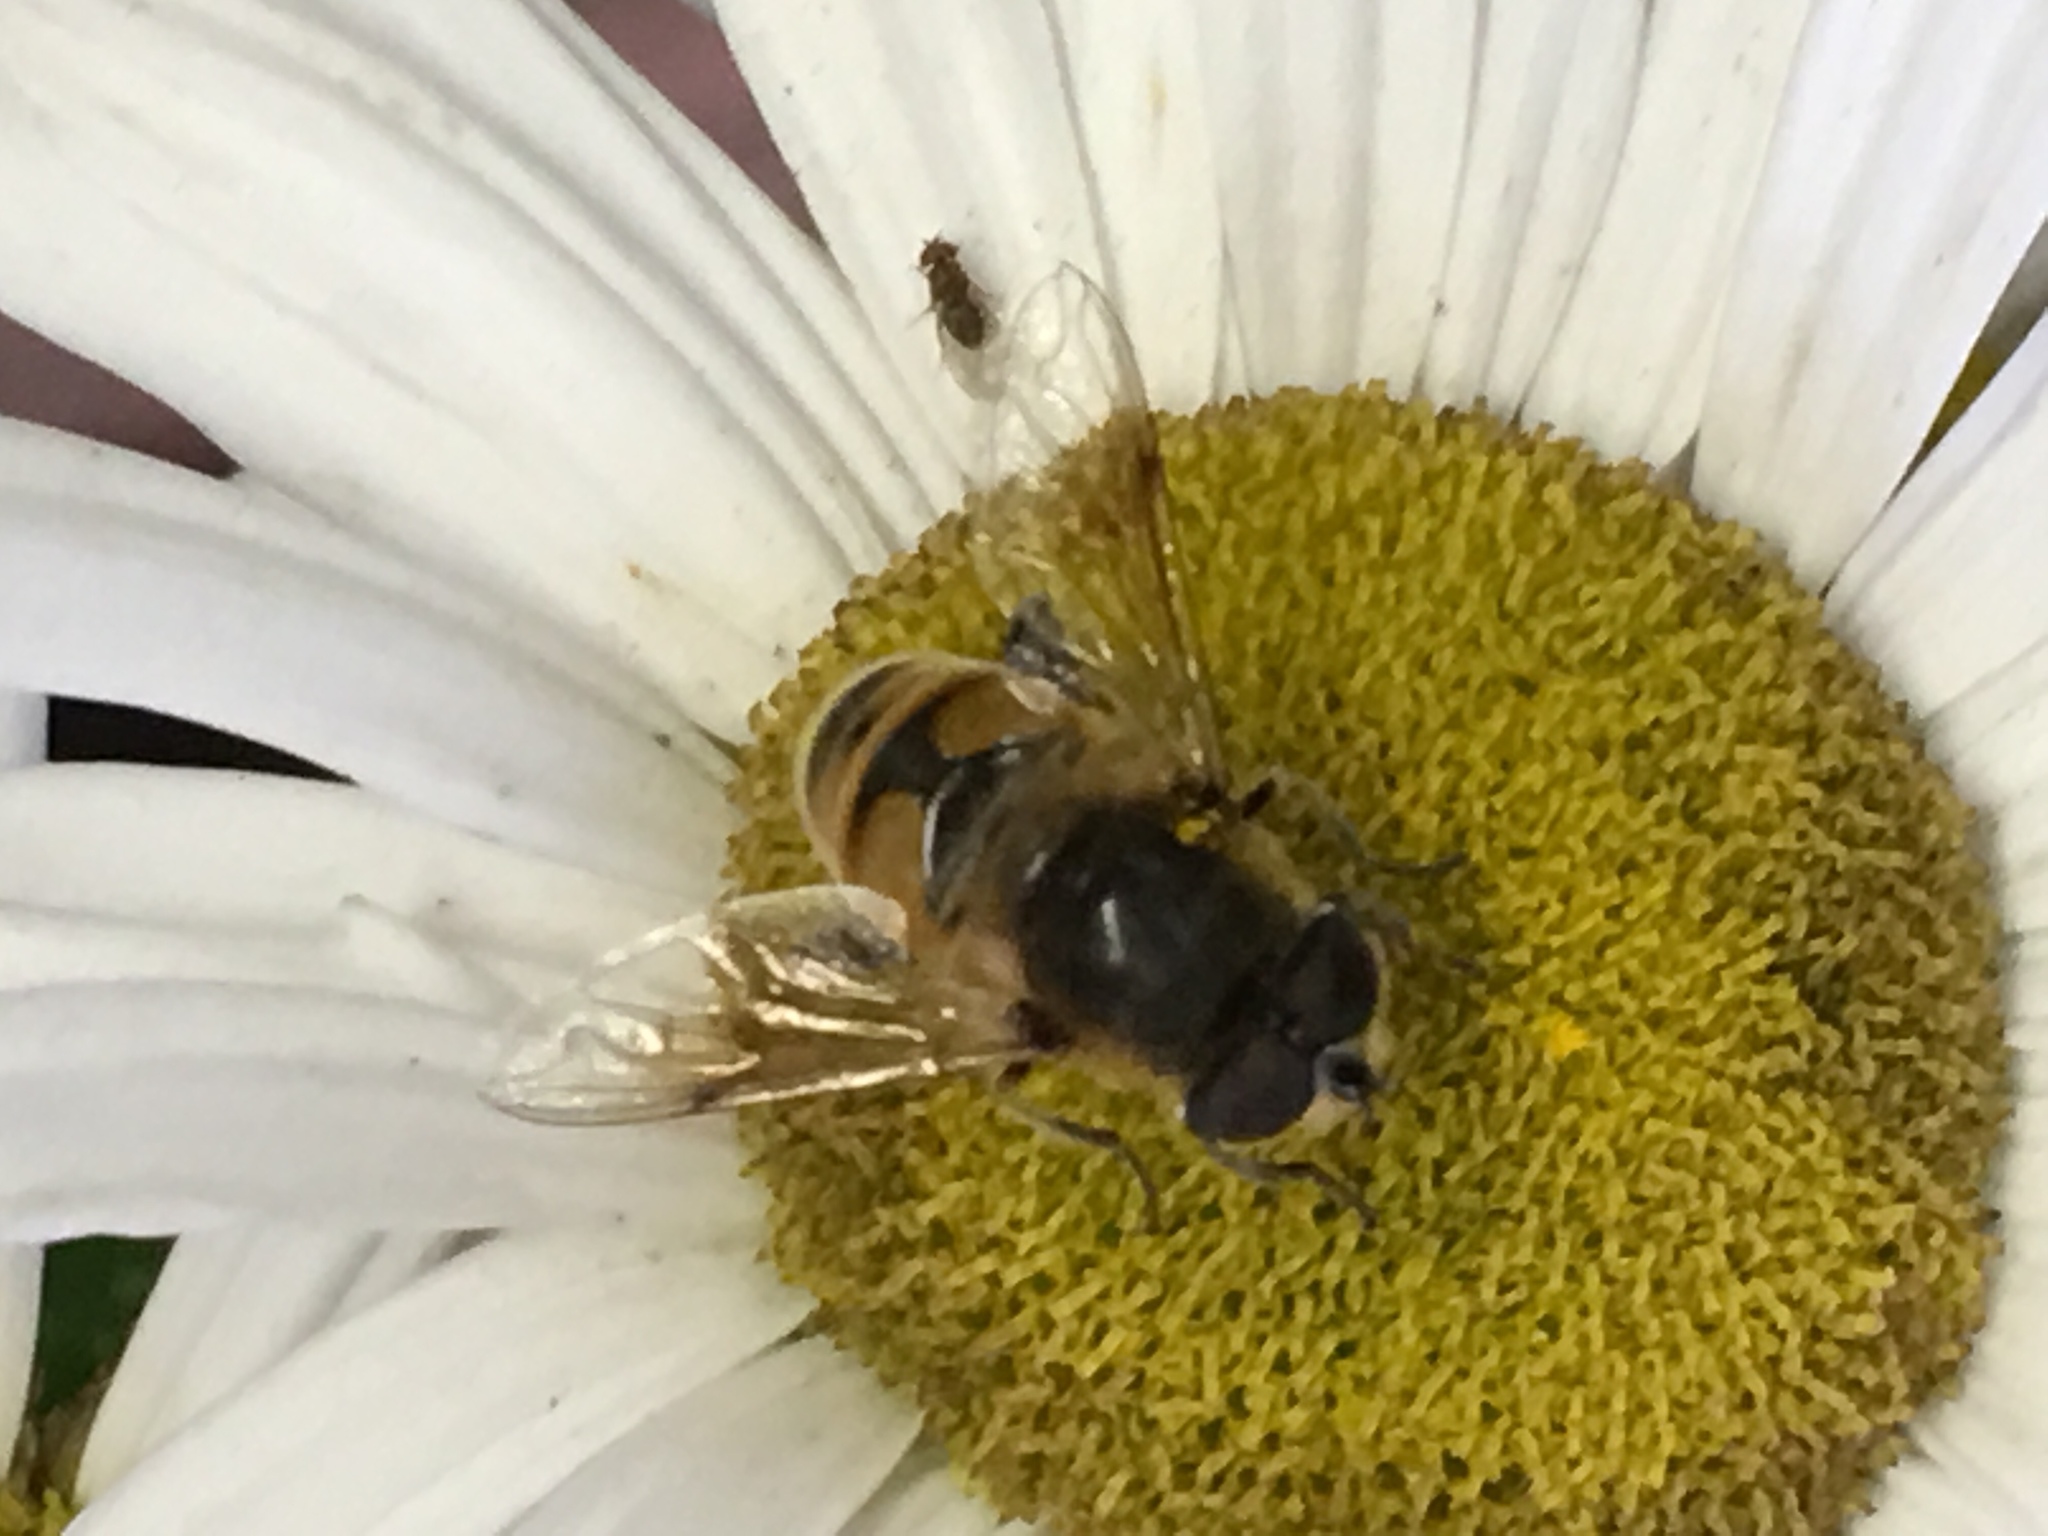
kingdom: Animalia
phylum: Arthropoda
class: Insecta
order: Diptera
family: Syrphidae
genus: Eristalis
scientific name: Eristalis tenax
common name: Drone fly
